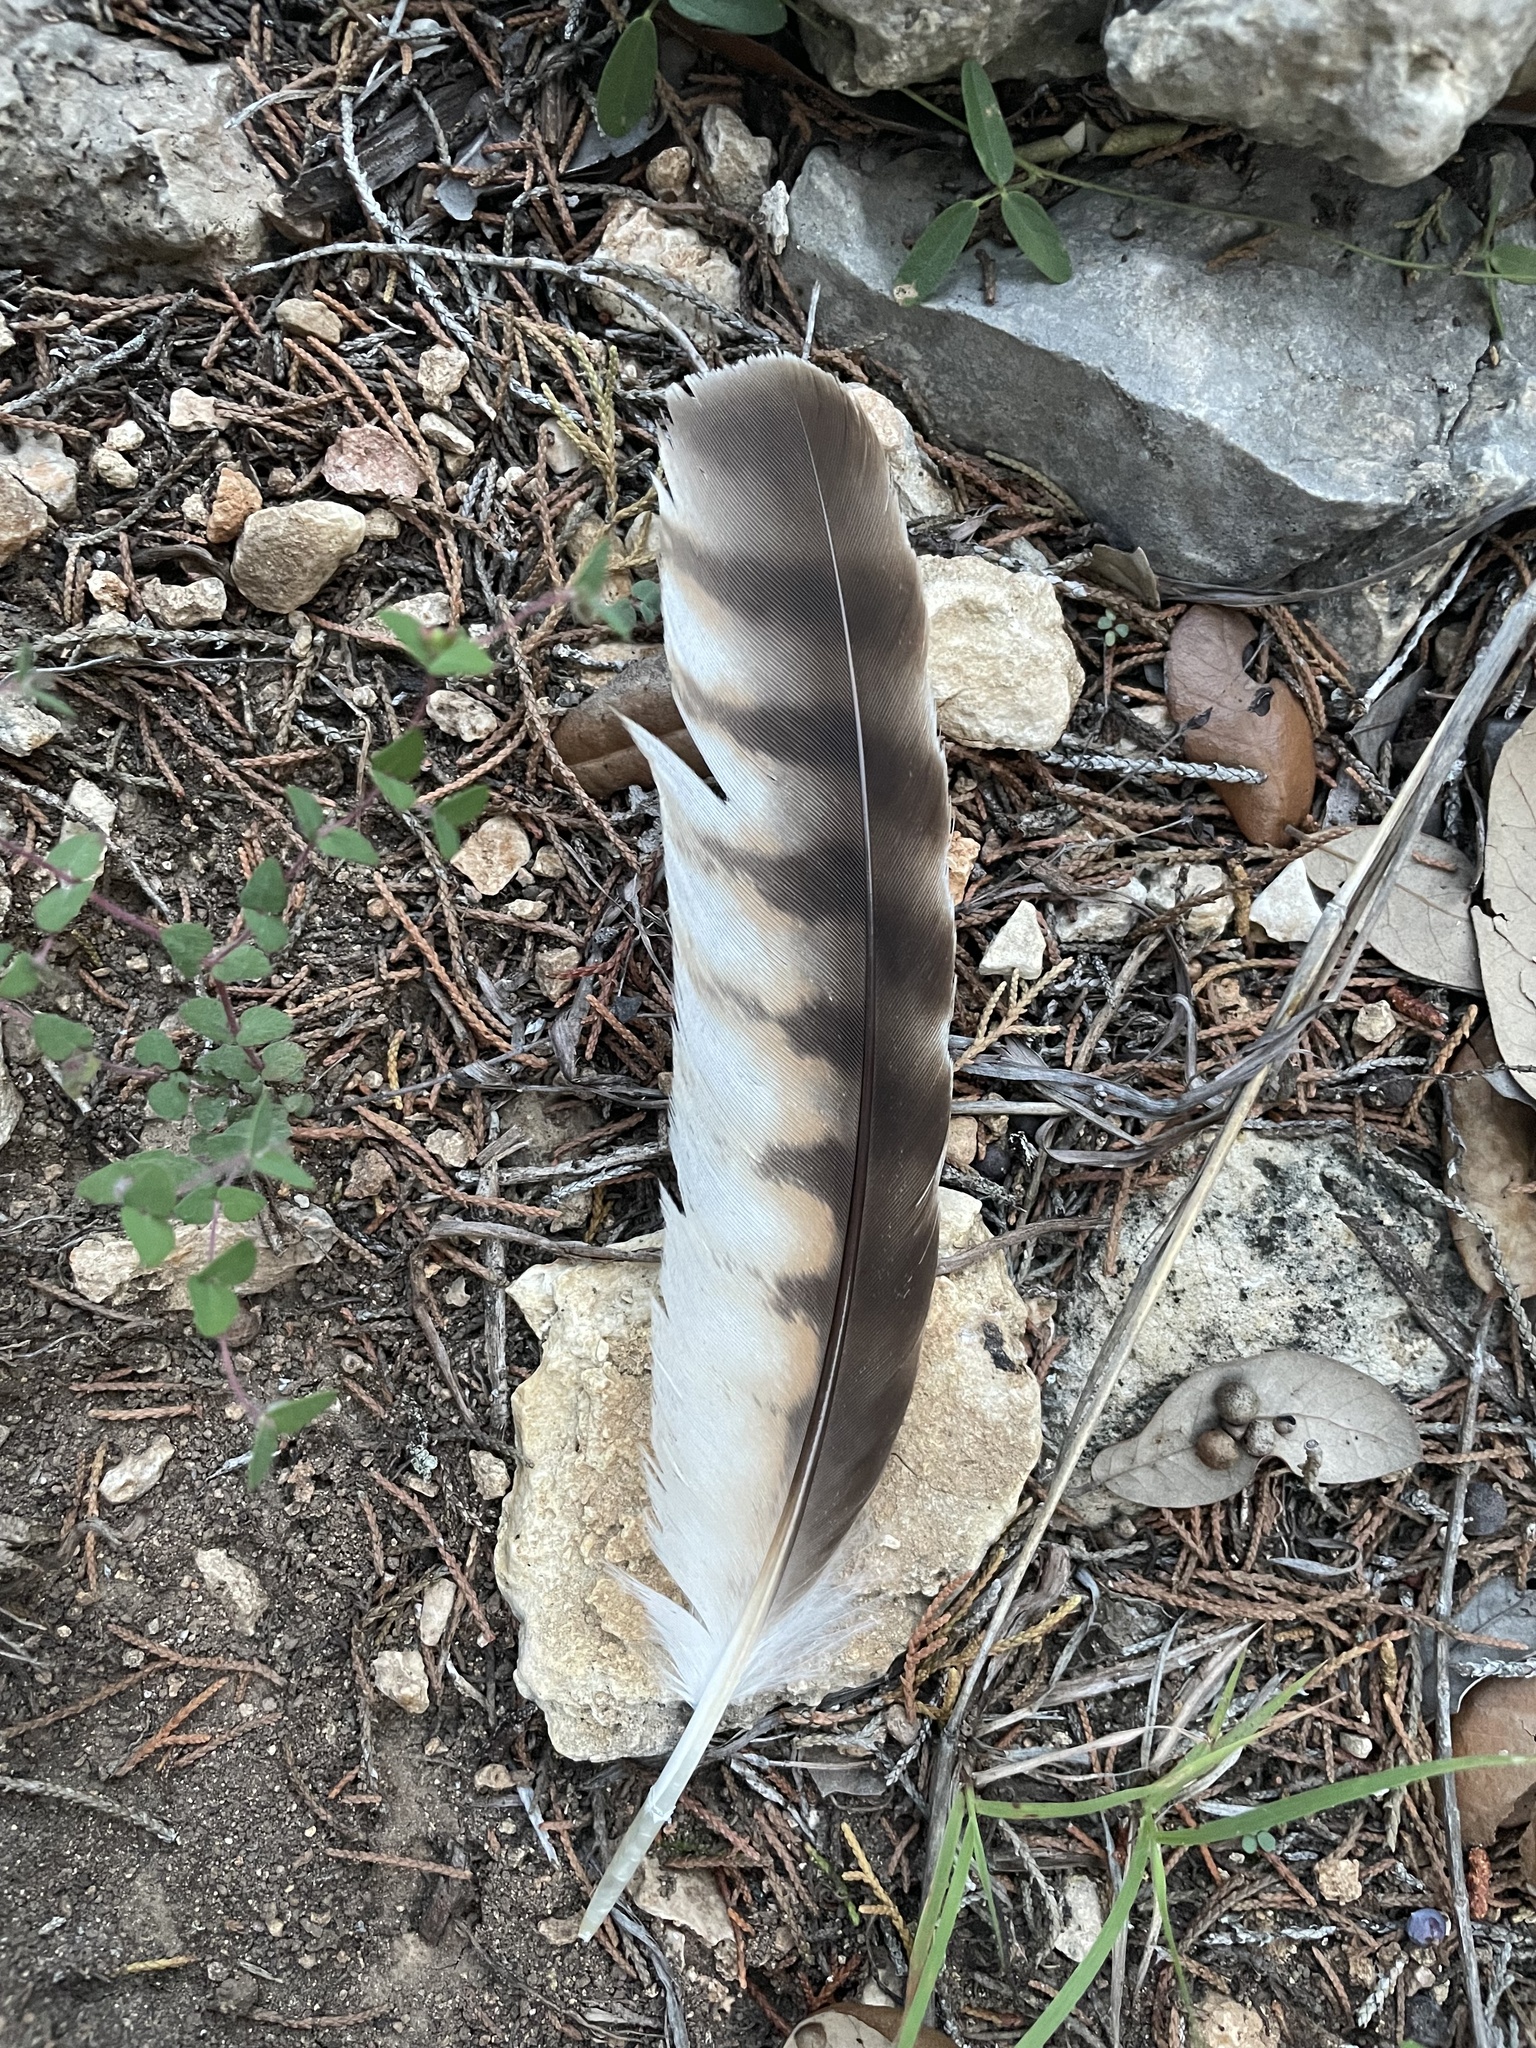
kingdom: Animalia
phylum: Chordata
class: Aves
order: Accipitriformes
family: Accipitridae
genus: Buteo
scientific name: Buteo lineatus
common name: Red-shouldered hawk
